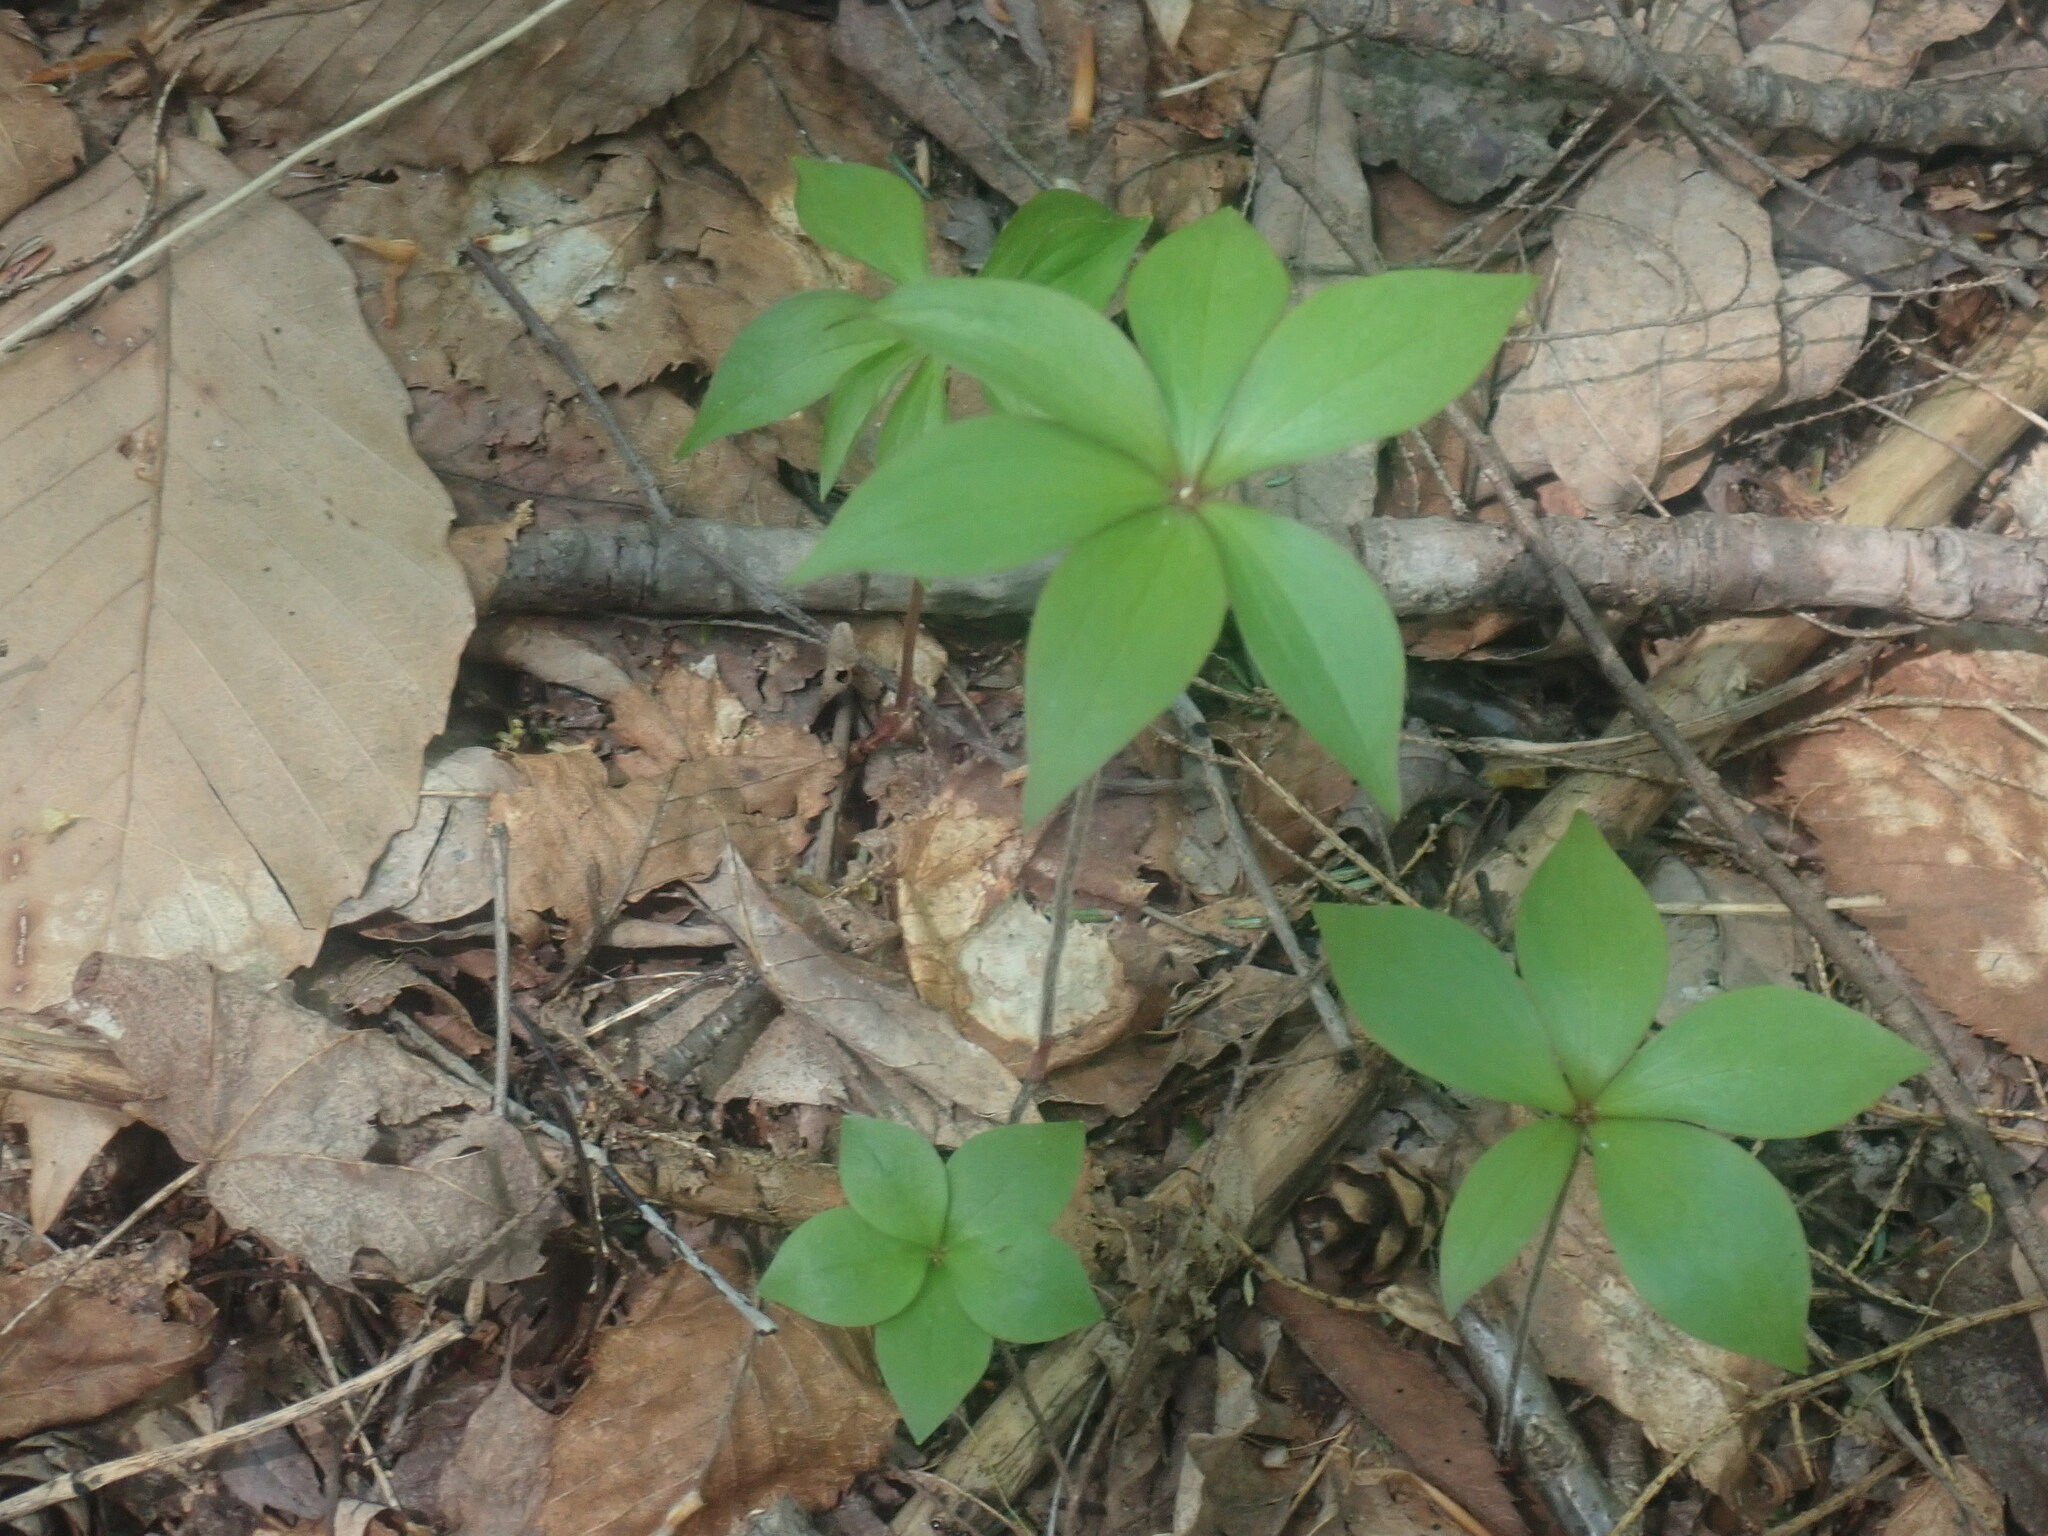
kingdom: Plantae
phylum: Tracheophyta
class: Liliopsida
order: Liliales
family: Liliaceae
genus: Medeola
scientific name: Medeola virginiana
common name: Indian cucumber-root
